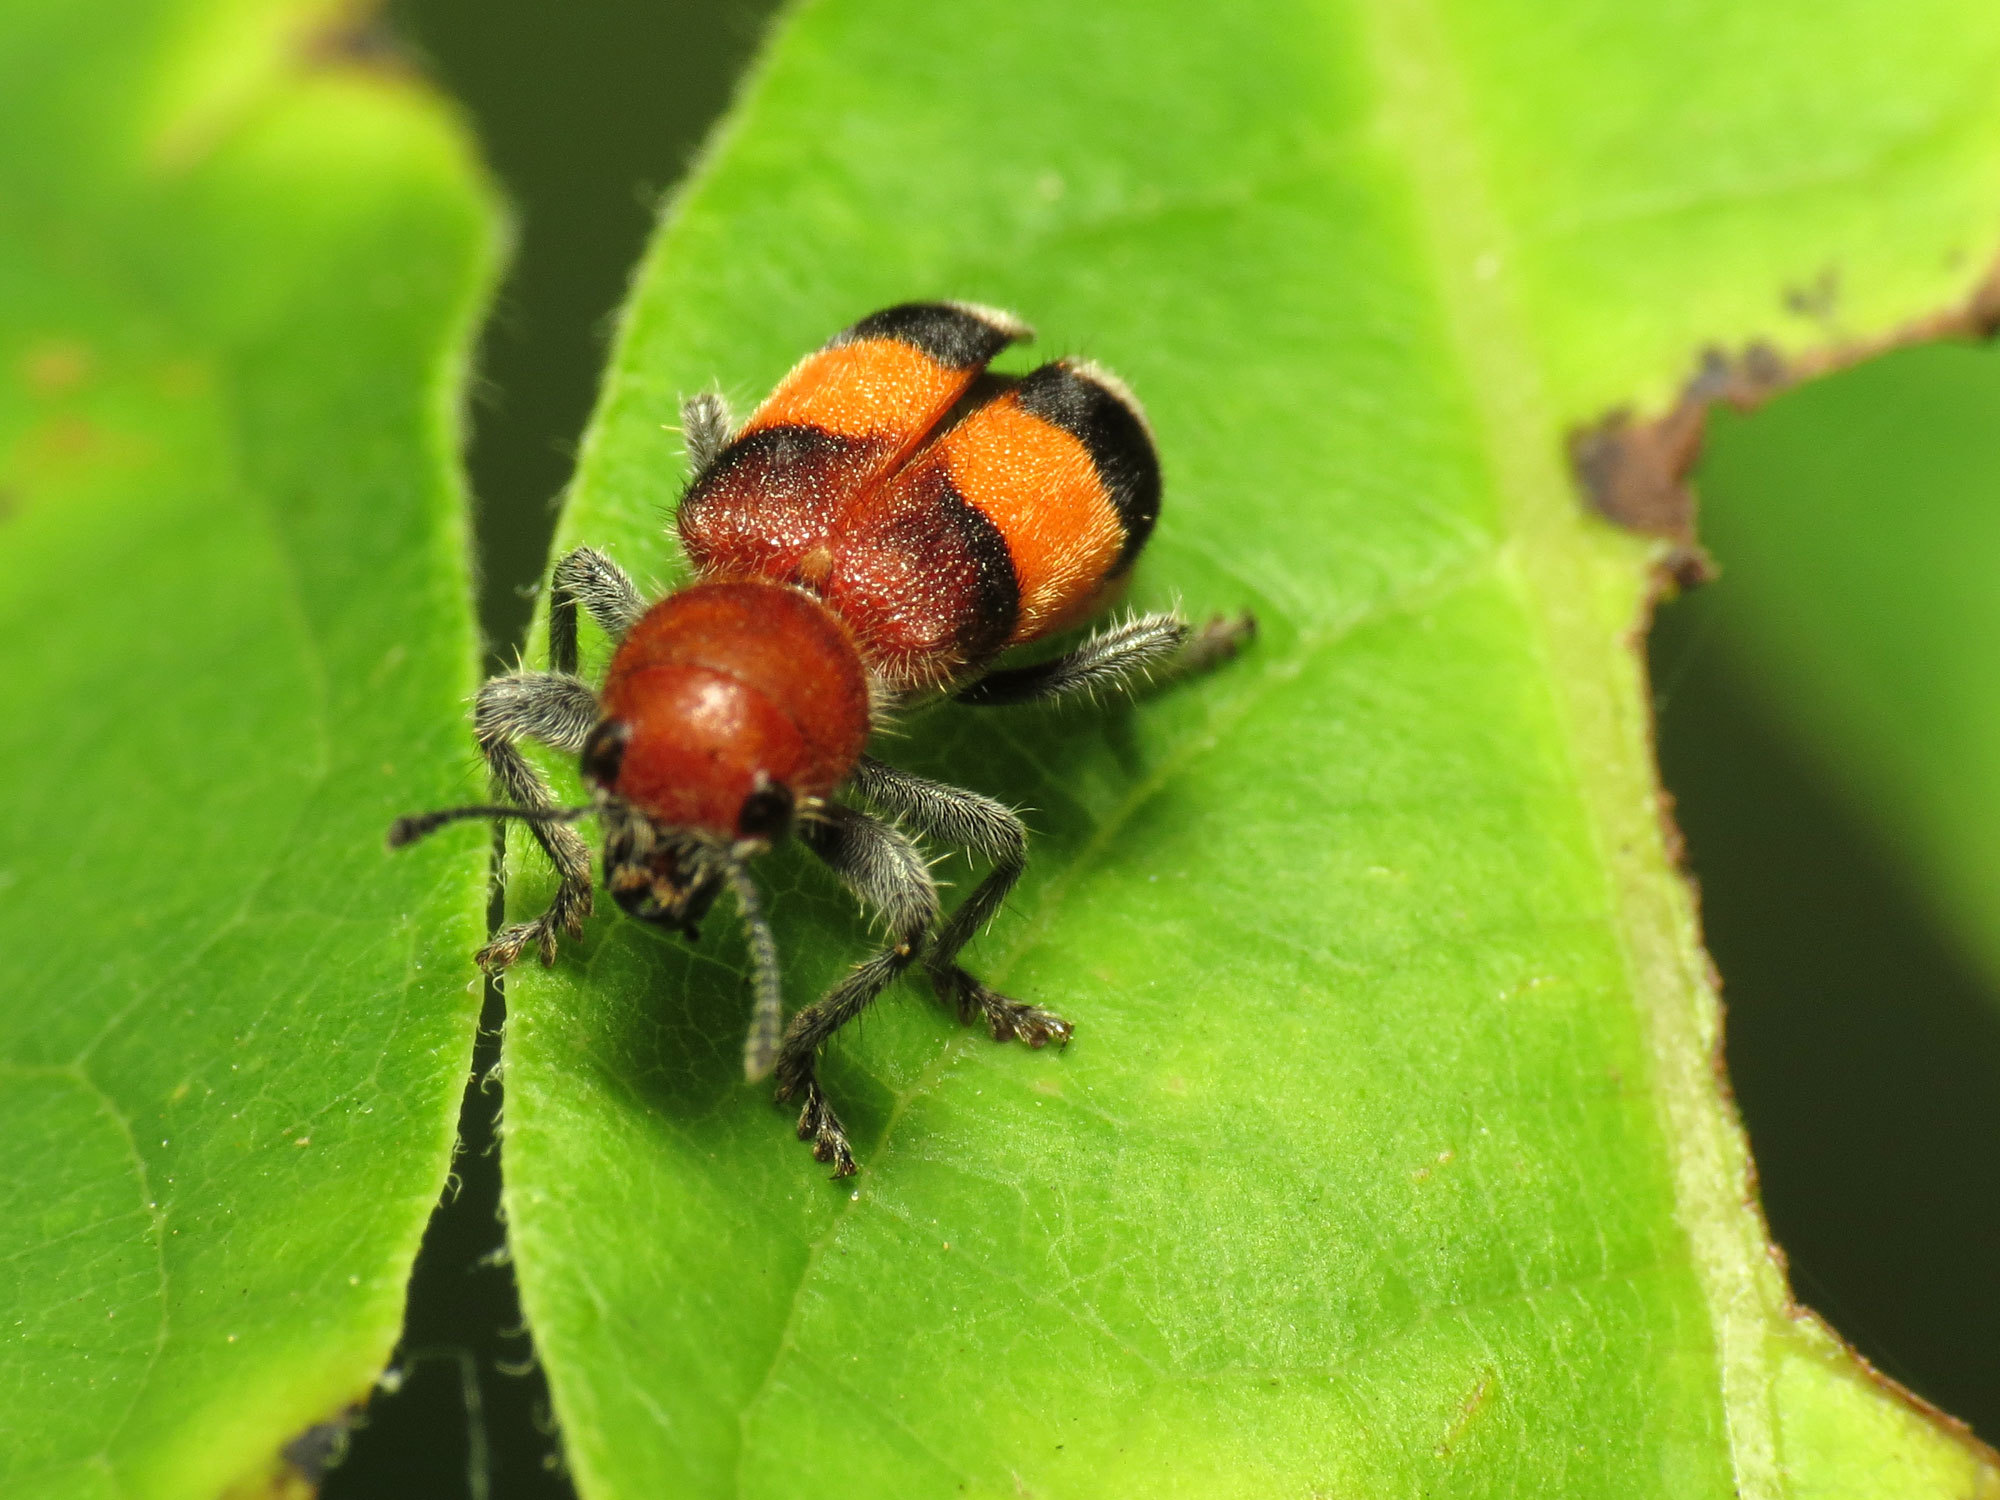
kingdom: Animalia
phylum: Arthropoda
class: Insecta
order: Coleoptera
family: Cleridae
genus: Enoclerus
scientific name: Enoclerus ichneumoneus
